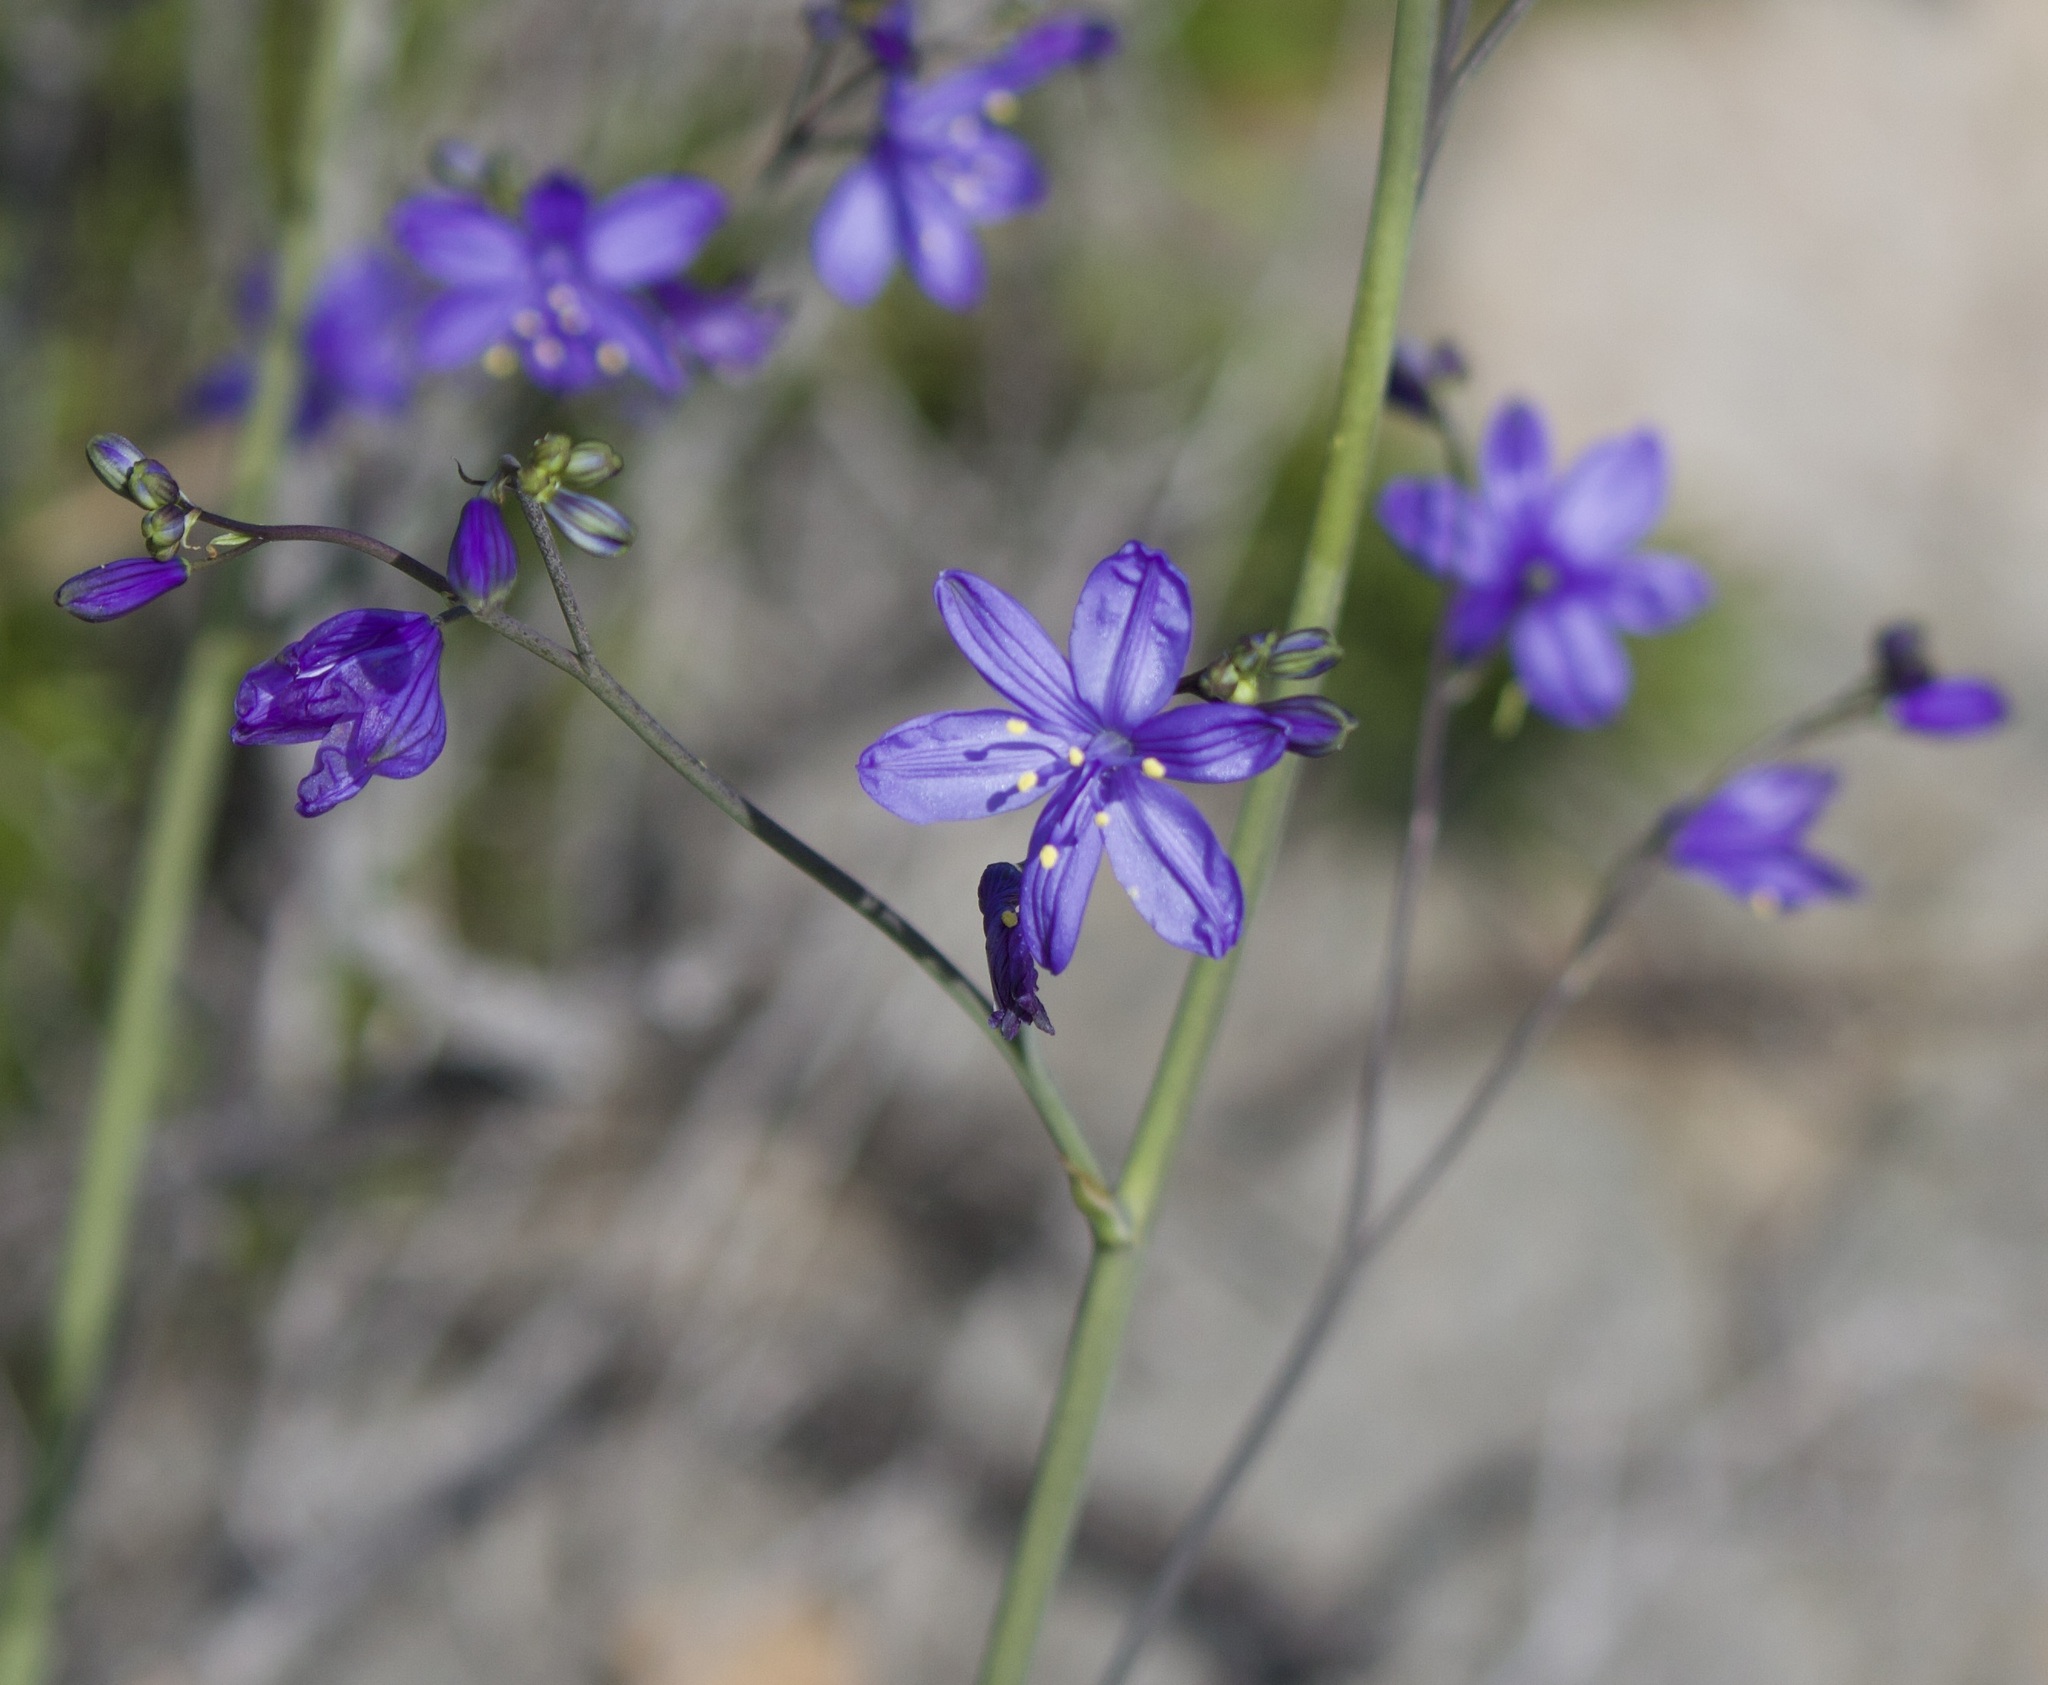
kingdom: Plantae
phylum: Tracheophyta
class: Liliopsida
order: Asparagales
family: Asphodelaceae
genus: Pasithea
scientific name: Pasithea caerulea
